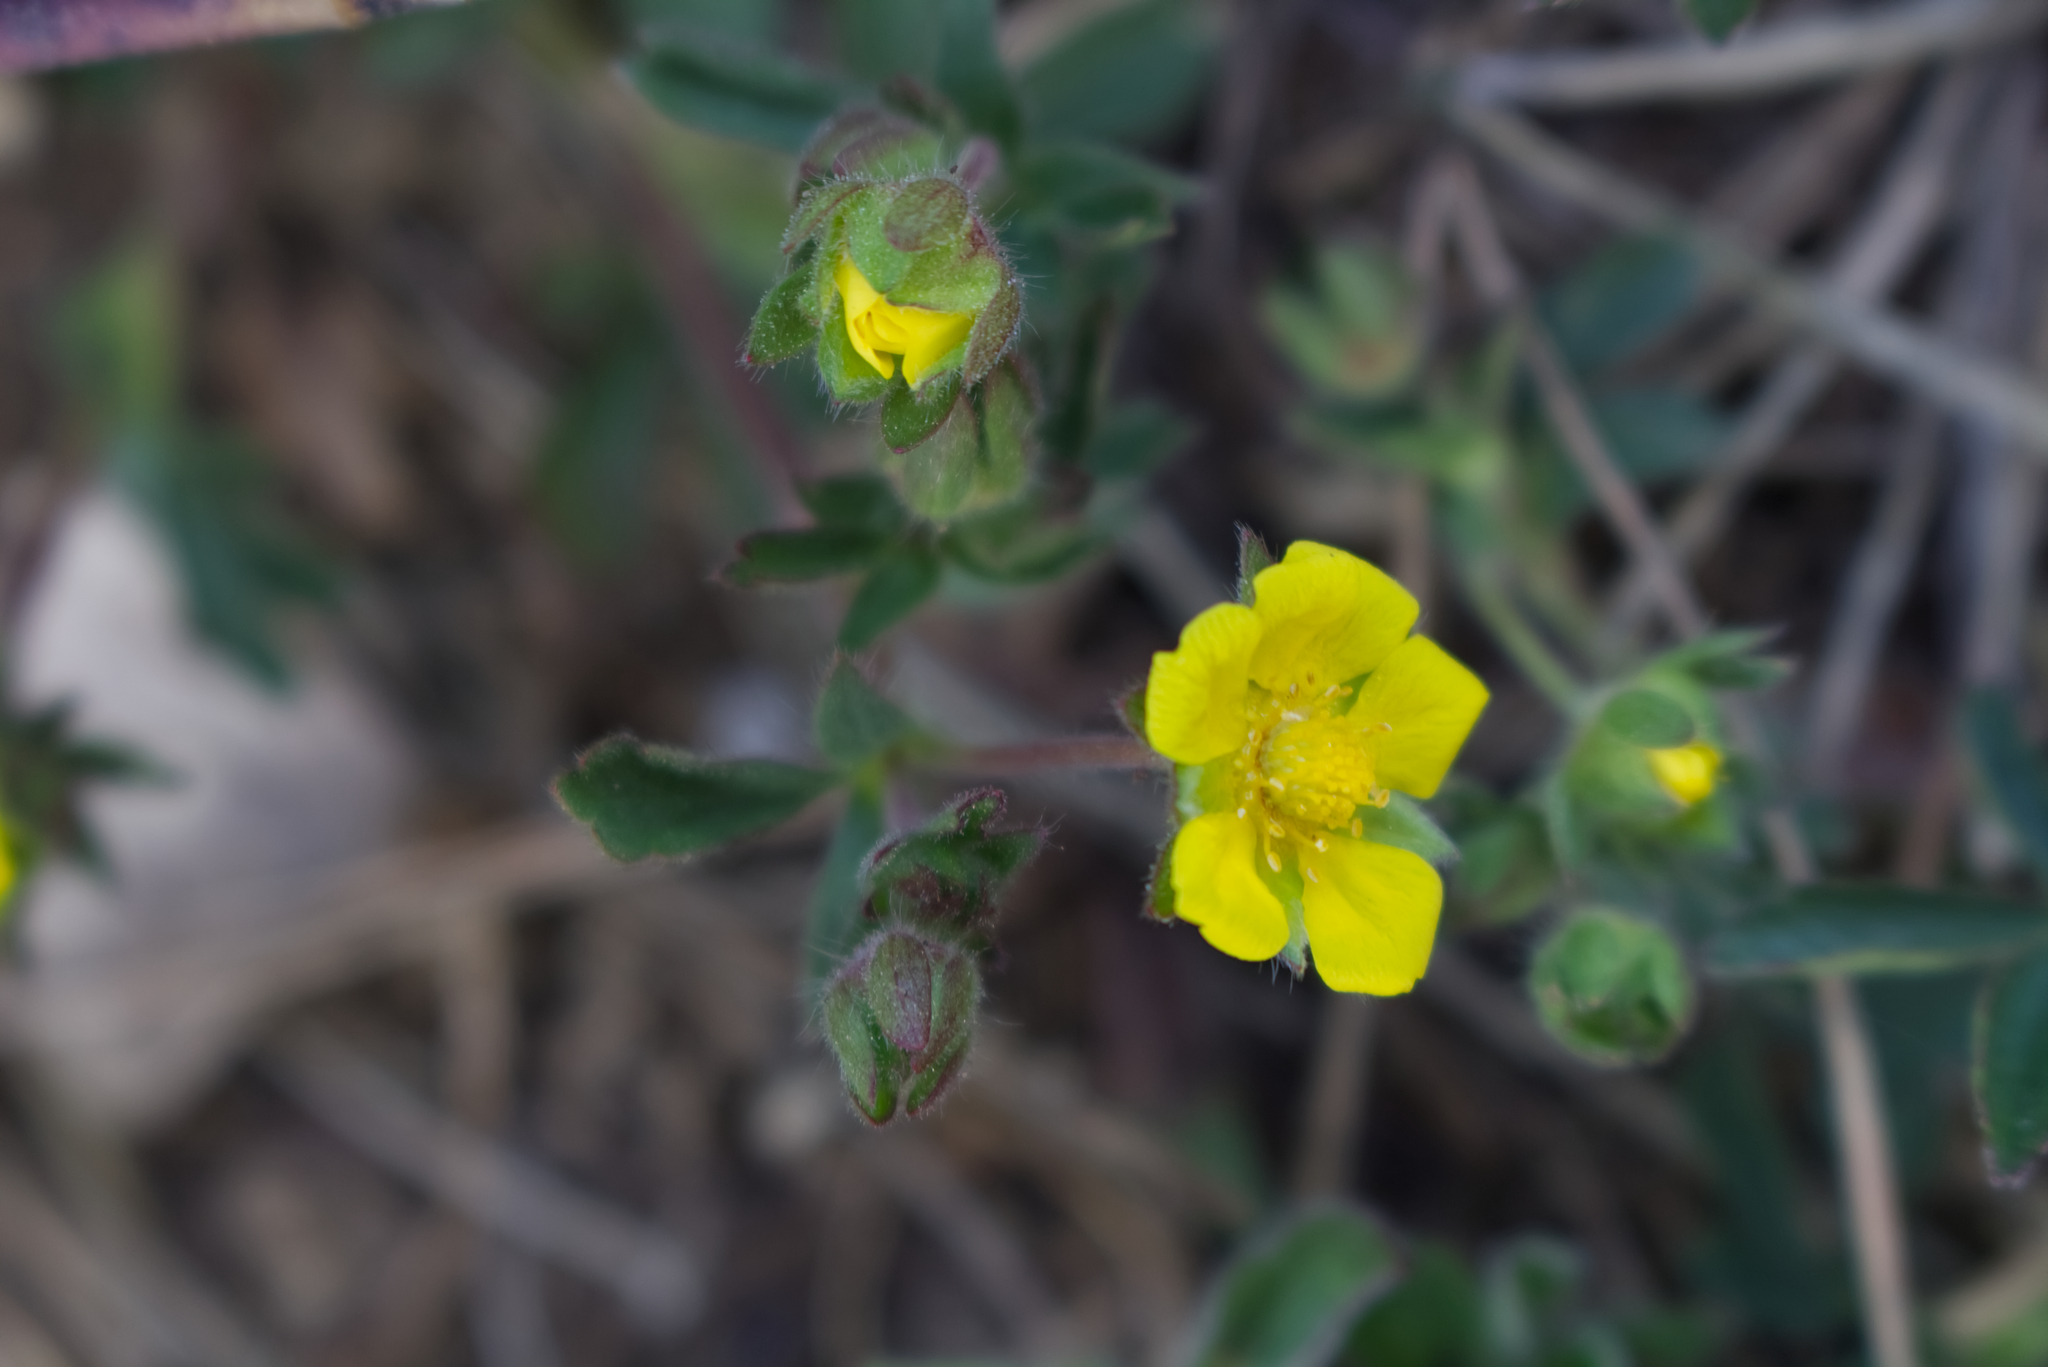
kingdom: Plantae
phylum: Tracheophyta
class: Magnoliopsida
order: Rosales
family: Rosaceae
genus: Potentilla
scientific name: Potentilla heptaphylla
